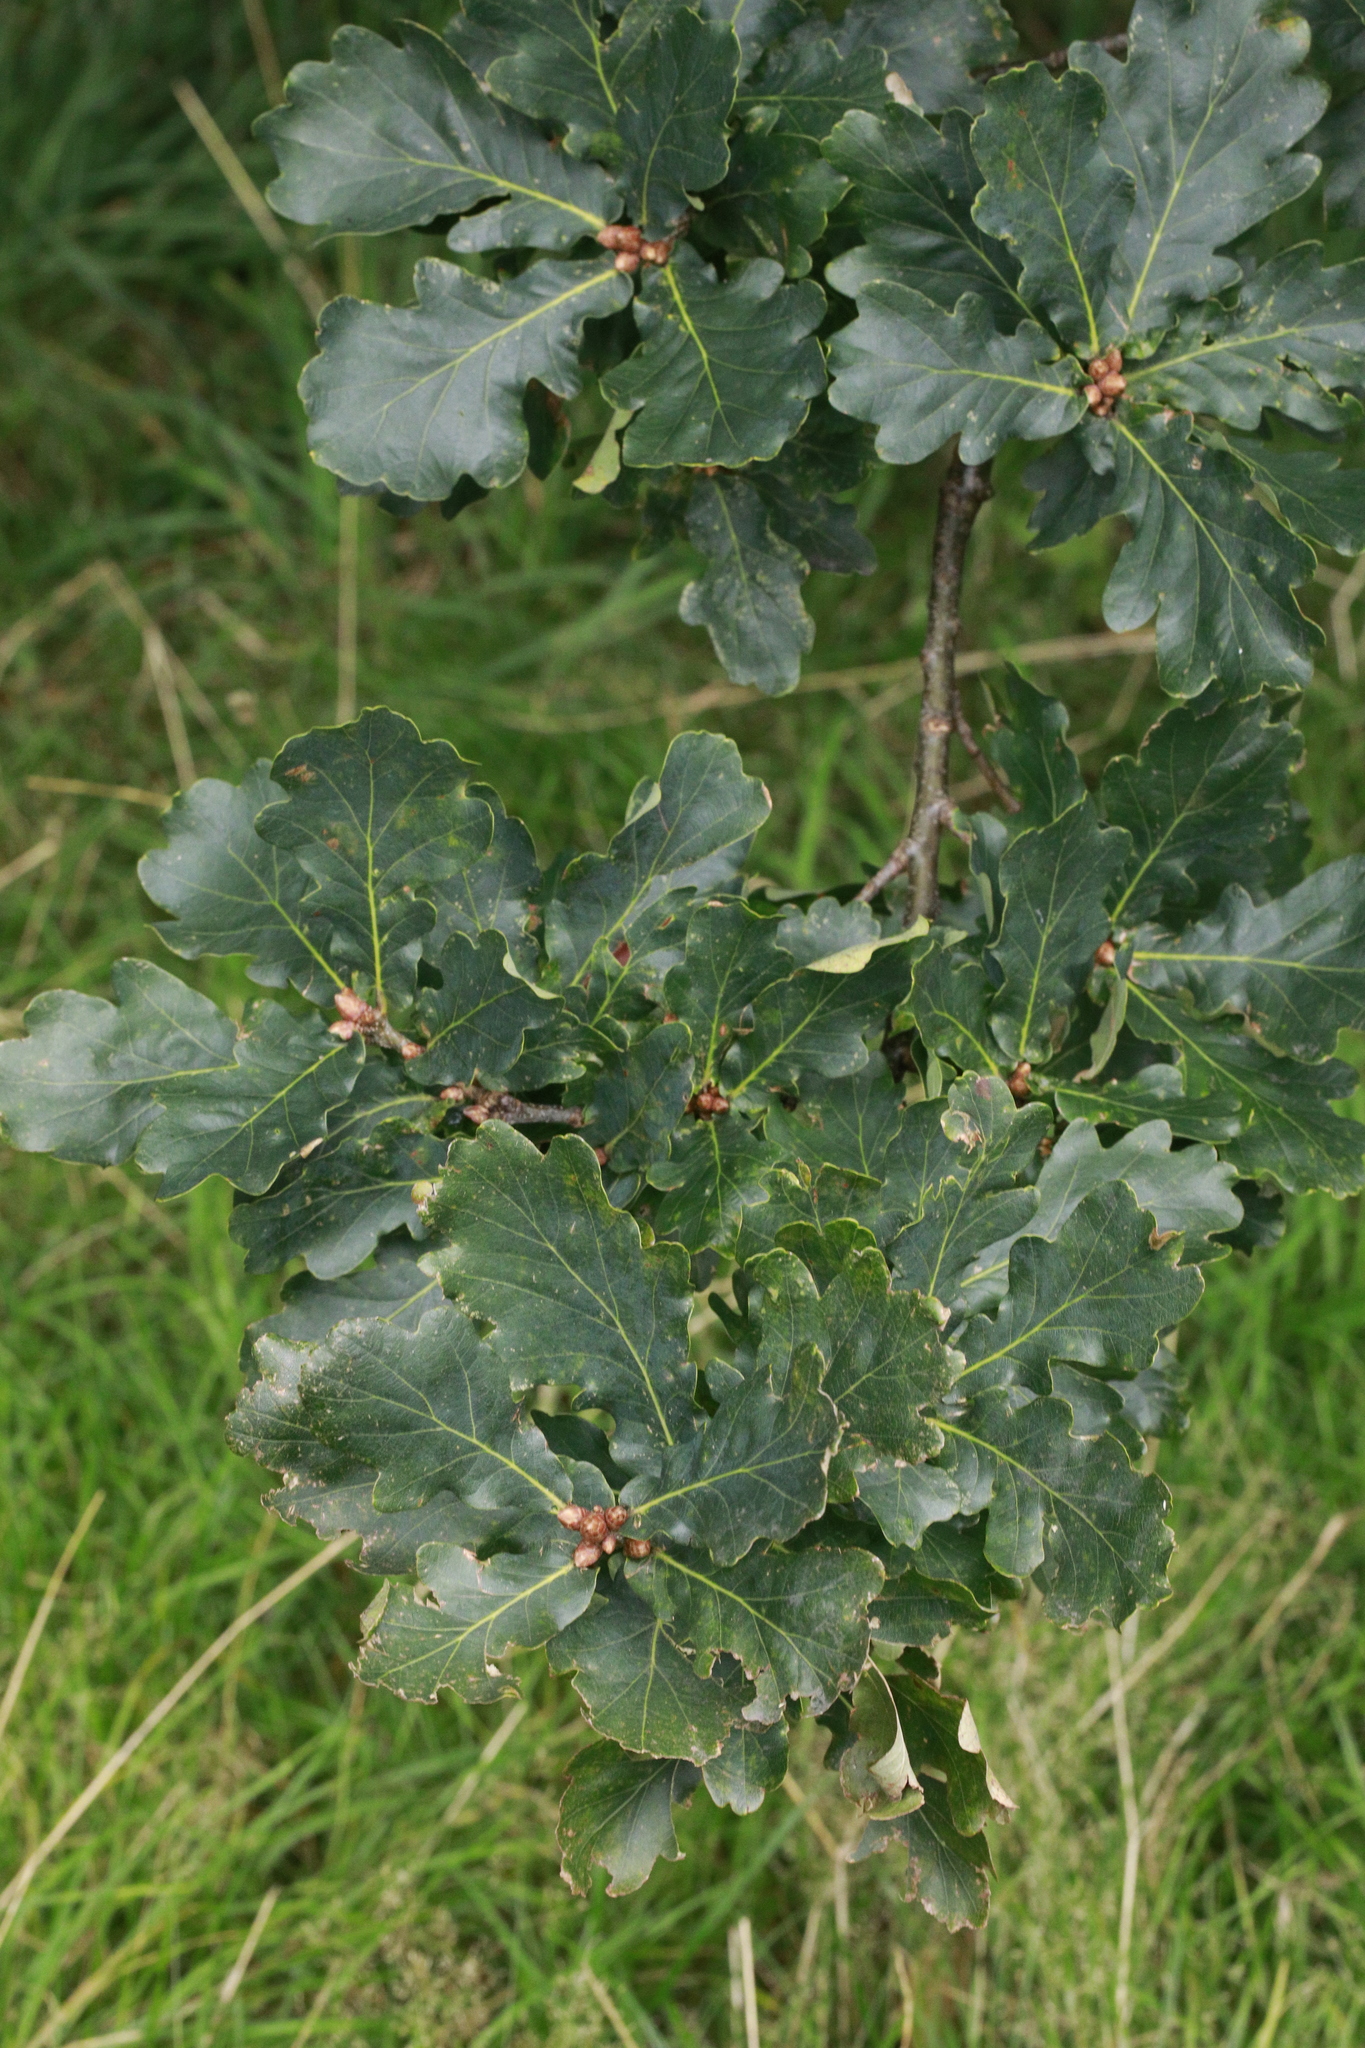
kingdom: Plantae
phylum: Tracheophyta
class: Magnoliopsida
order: Fagales
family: Fagaceae
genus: Quercus
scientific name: Quercus robur
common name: Pedunculate oak
